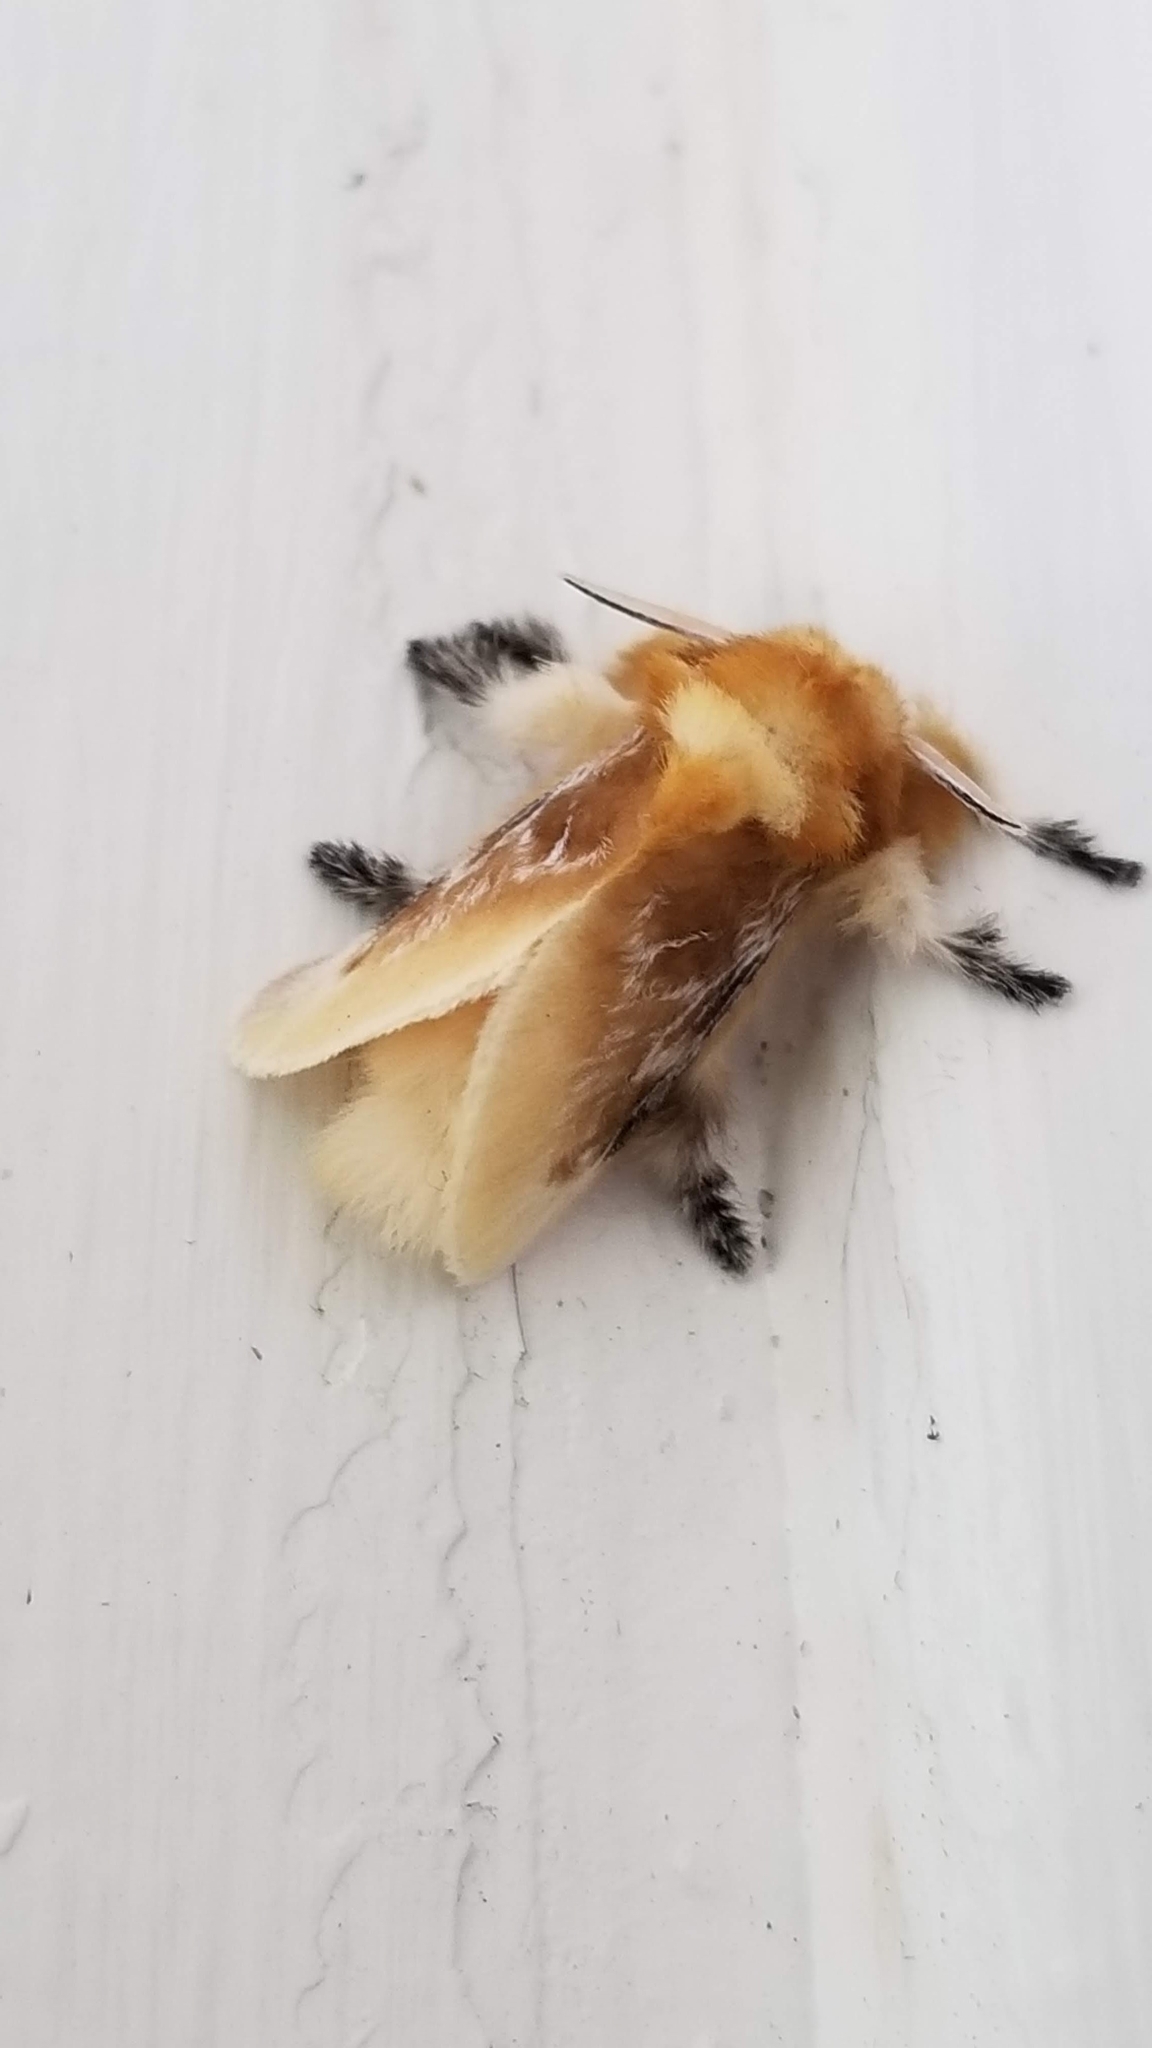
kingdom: Animalia
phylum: Arthropoda
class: Insecta
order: Lepidoptera
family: Megalopygidae
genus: Megalopyge
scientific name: Megalopyge opercularis
